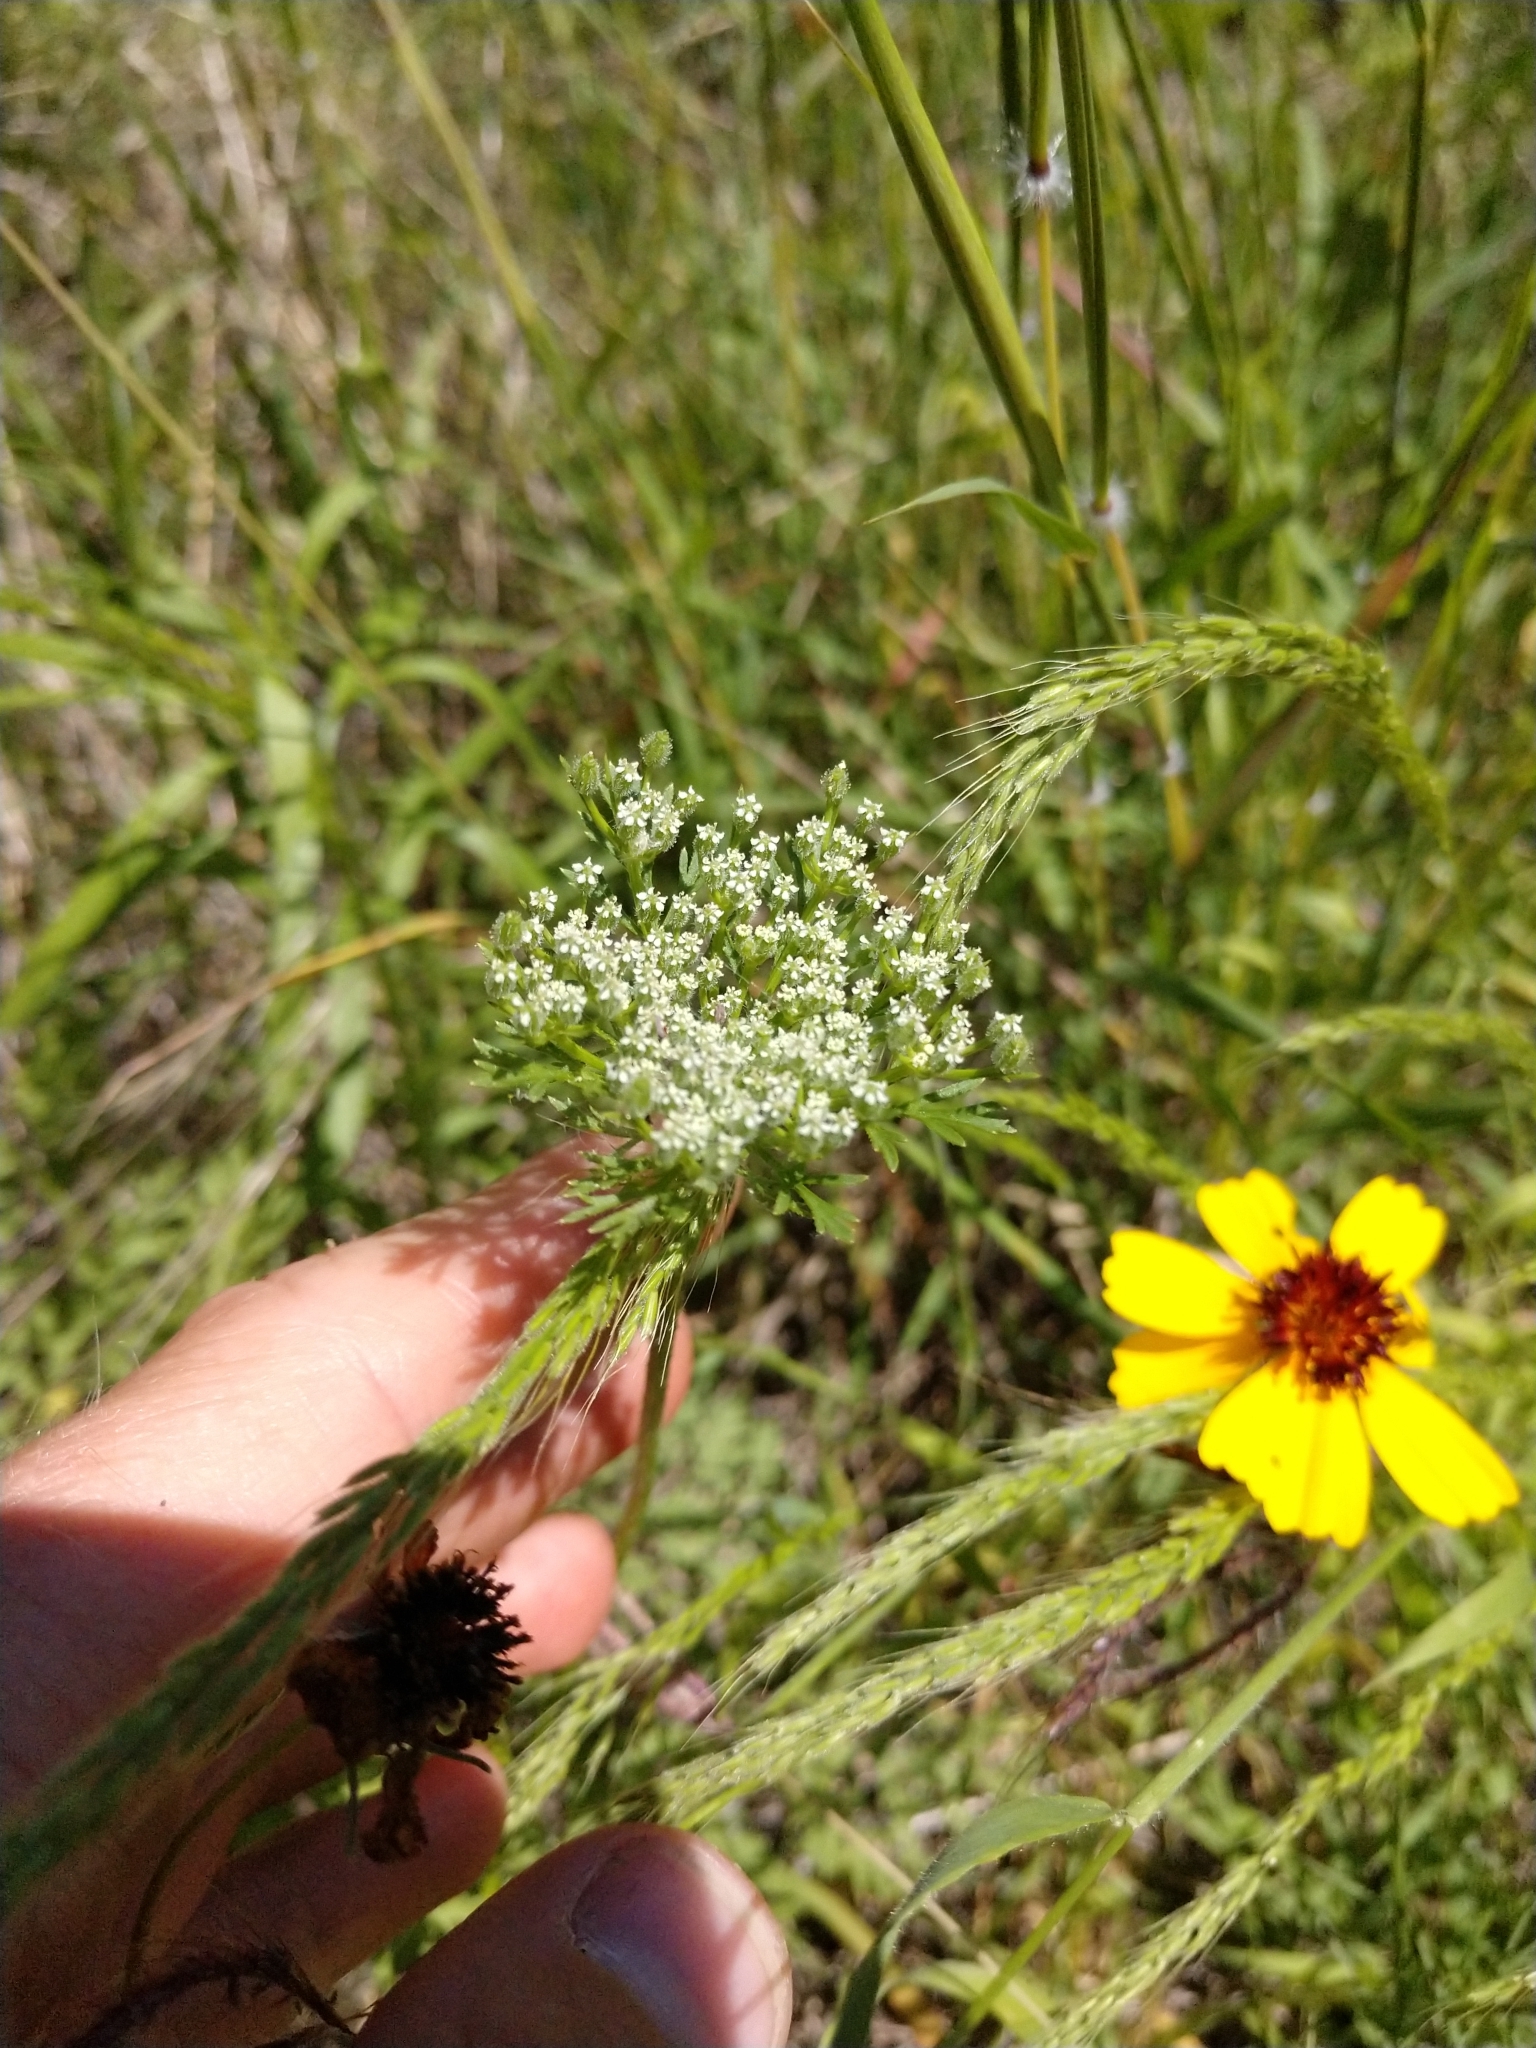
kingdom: Plantae
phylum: Tracheophyta
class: Magnoliopsida
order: Apiales
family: Apiaceae
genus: Daucus
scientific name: Daucus pusillus
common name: Southwest wild carrot
